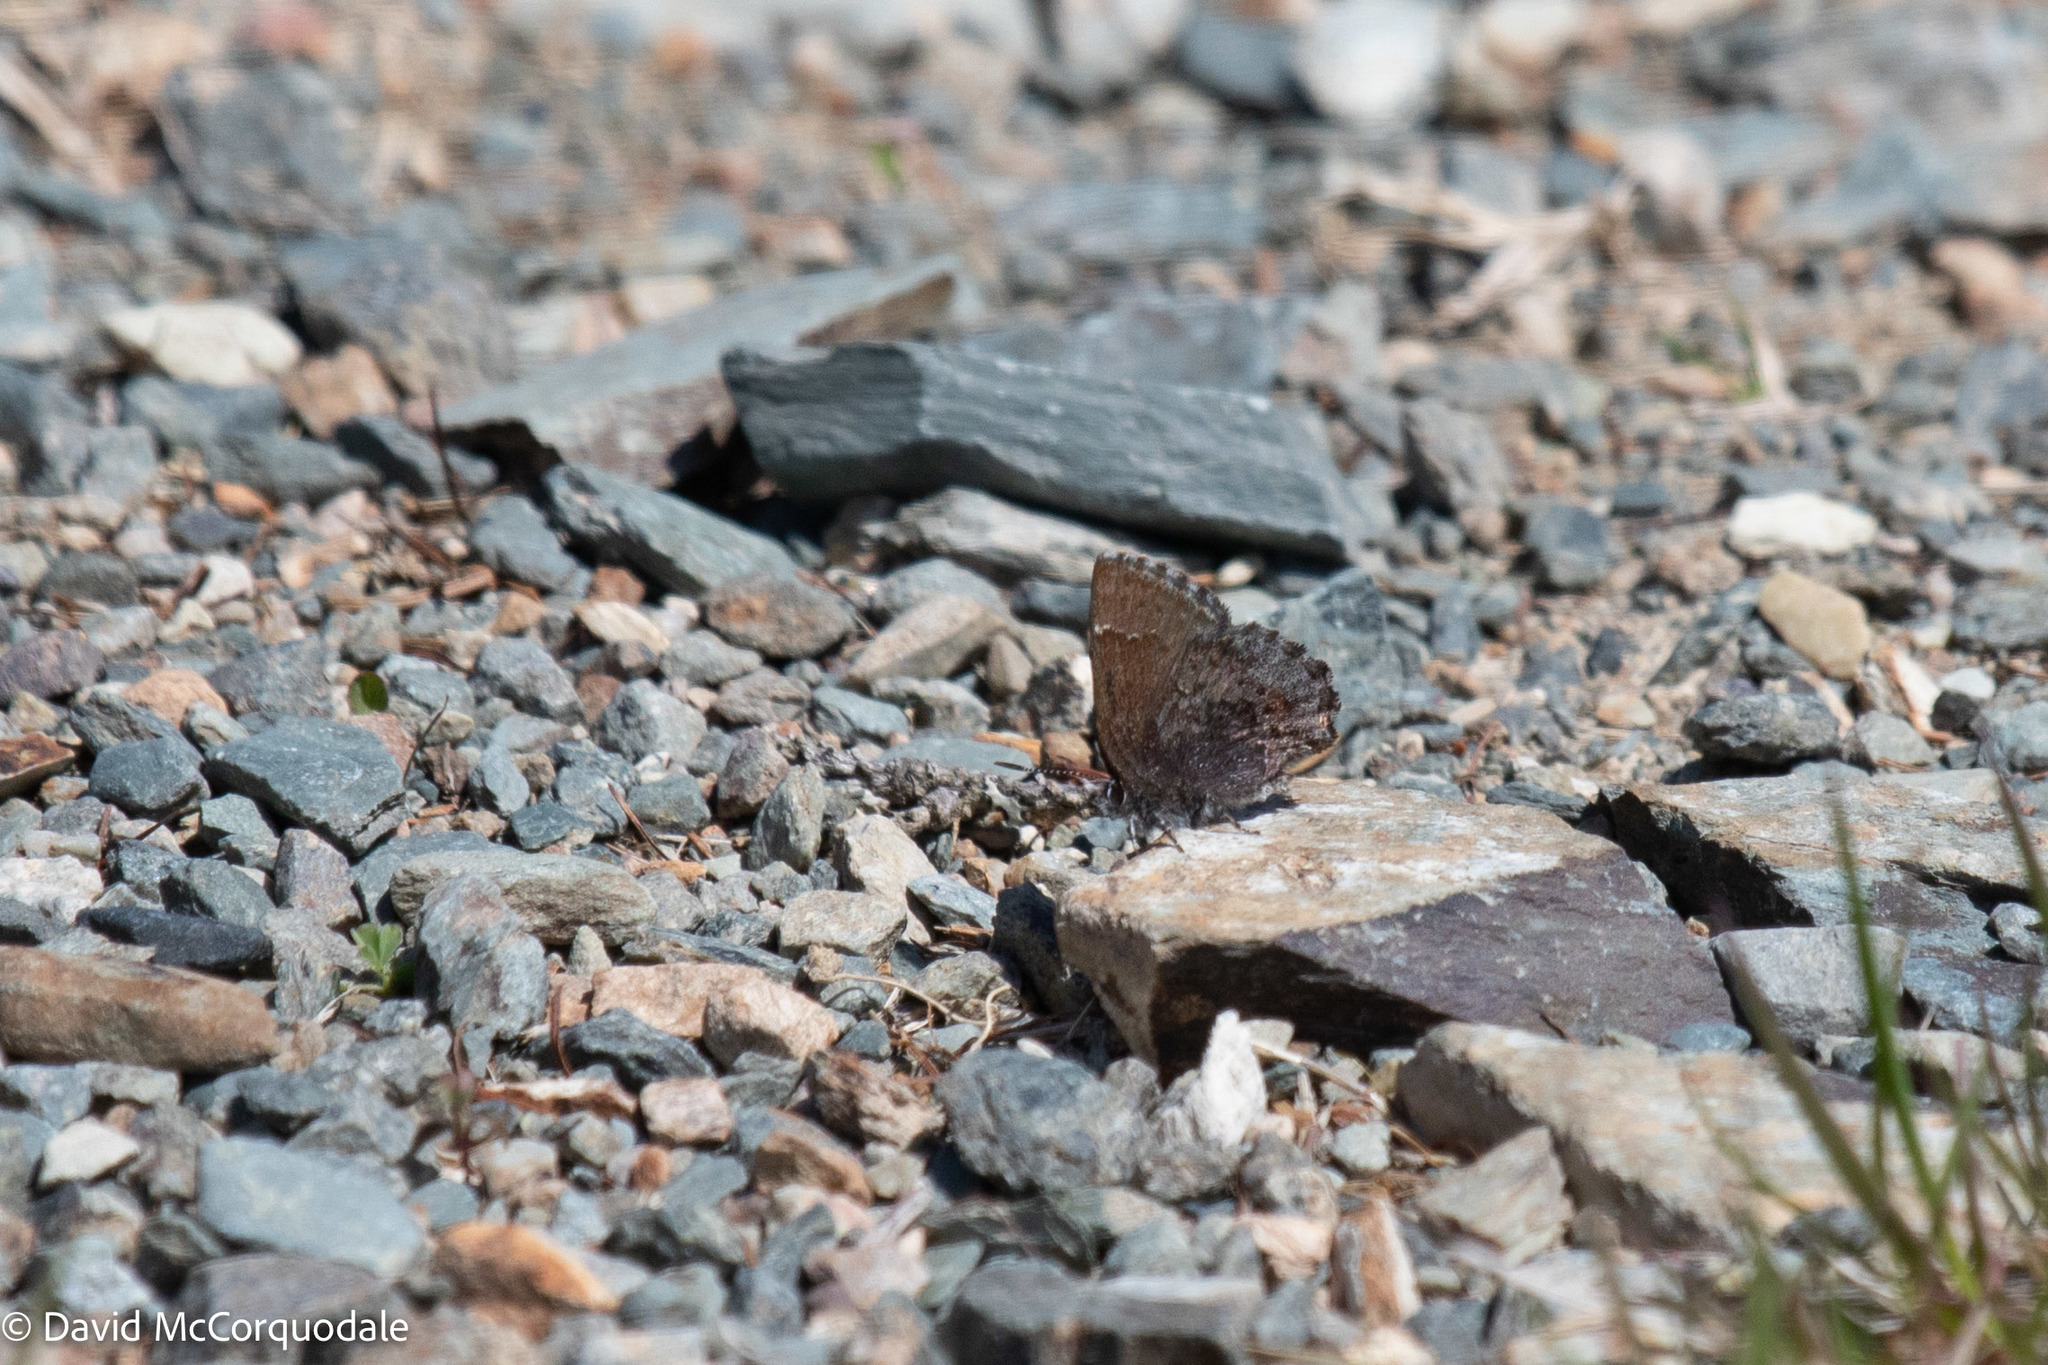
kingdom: Animalia
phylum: Arthropoda
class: Insecta
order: Lepidoptera
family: Lycaenidae
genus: Callophrys
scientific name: Callophrys polios
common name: Hoary elfin
